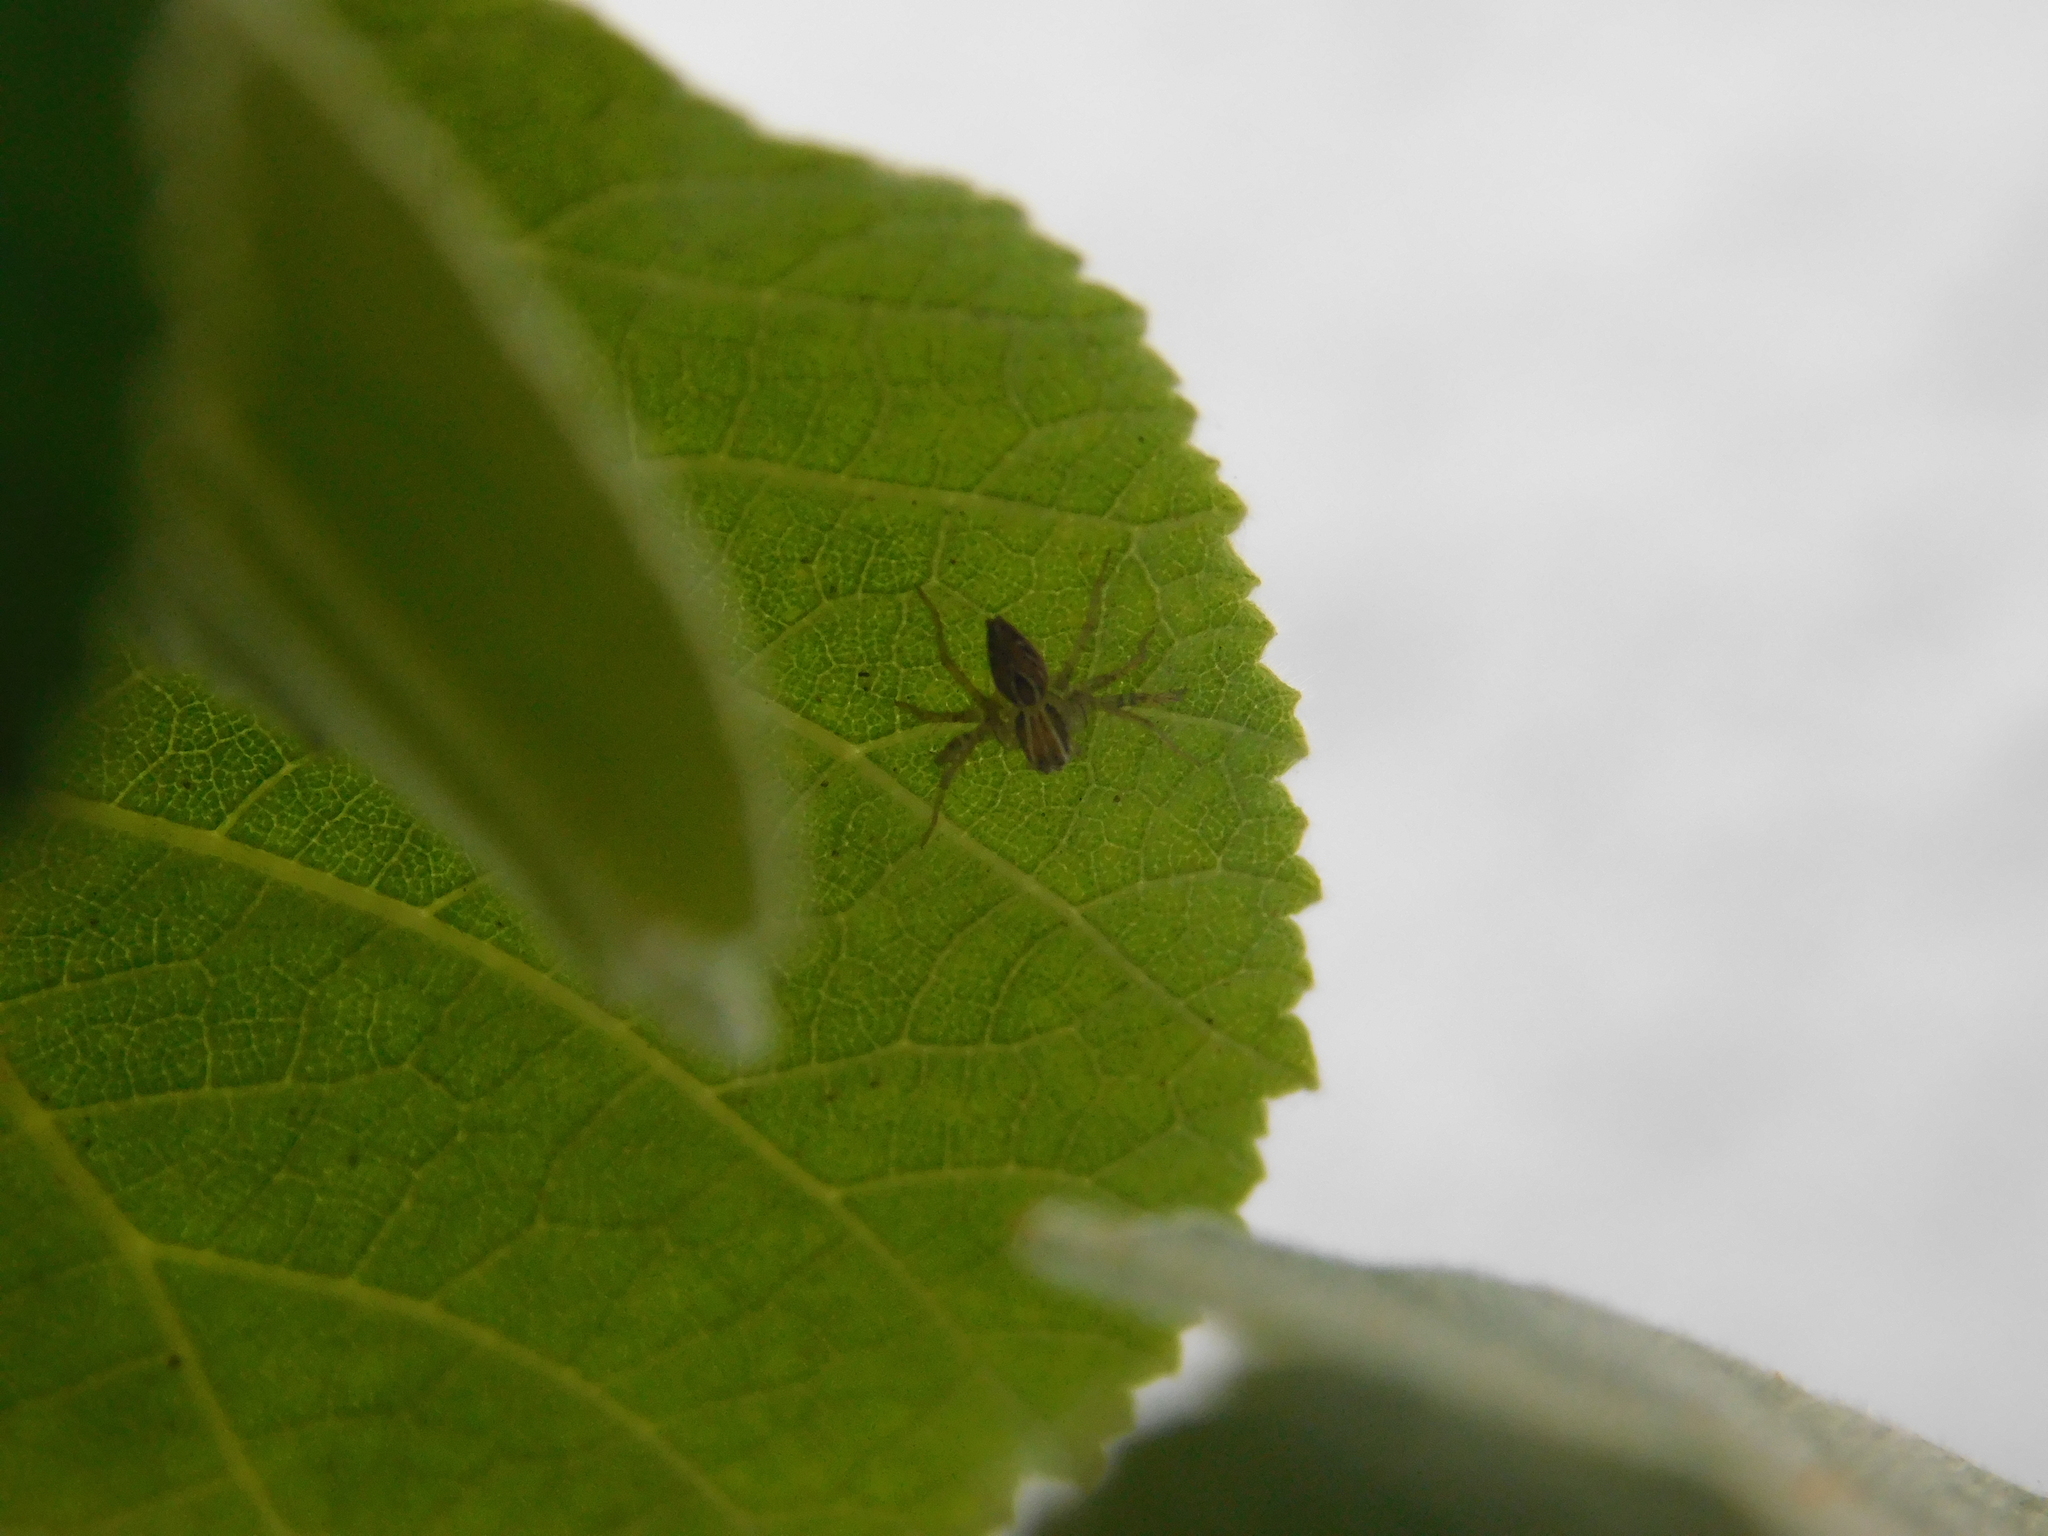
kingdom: Animalia
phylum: Arthropoda
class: Arachnida
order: Araneae
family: Oxyopidae
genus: Oxyopes
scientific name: Oxyopes salticus
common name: Lynx spiders
